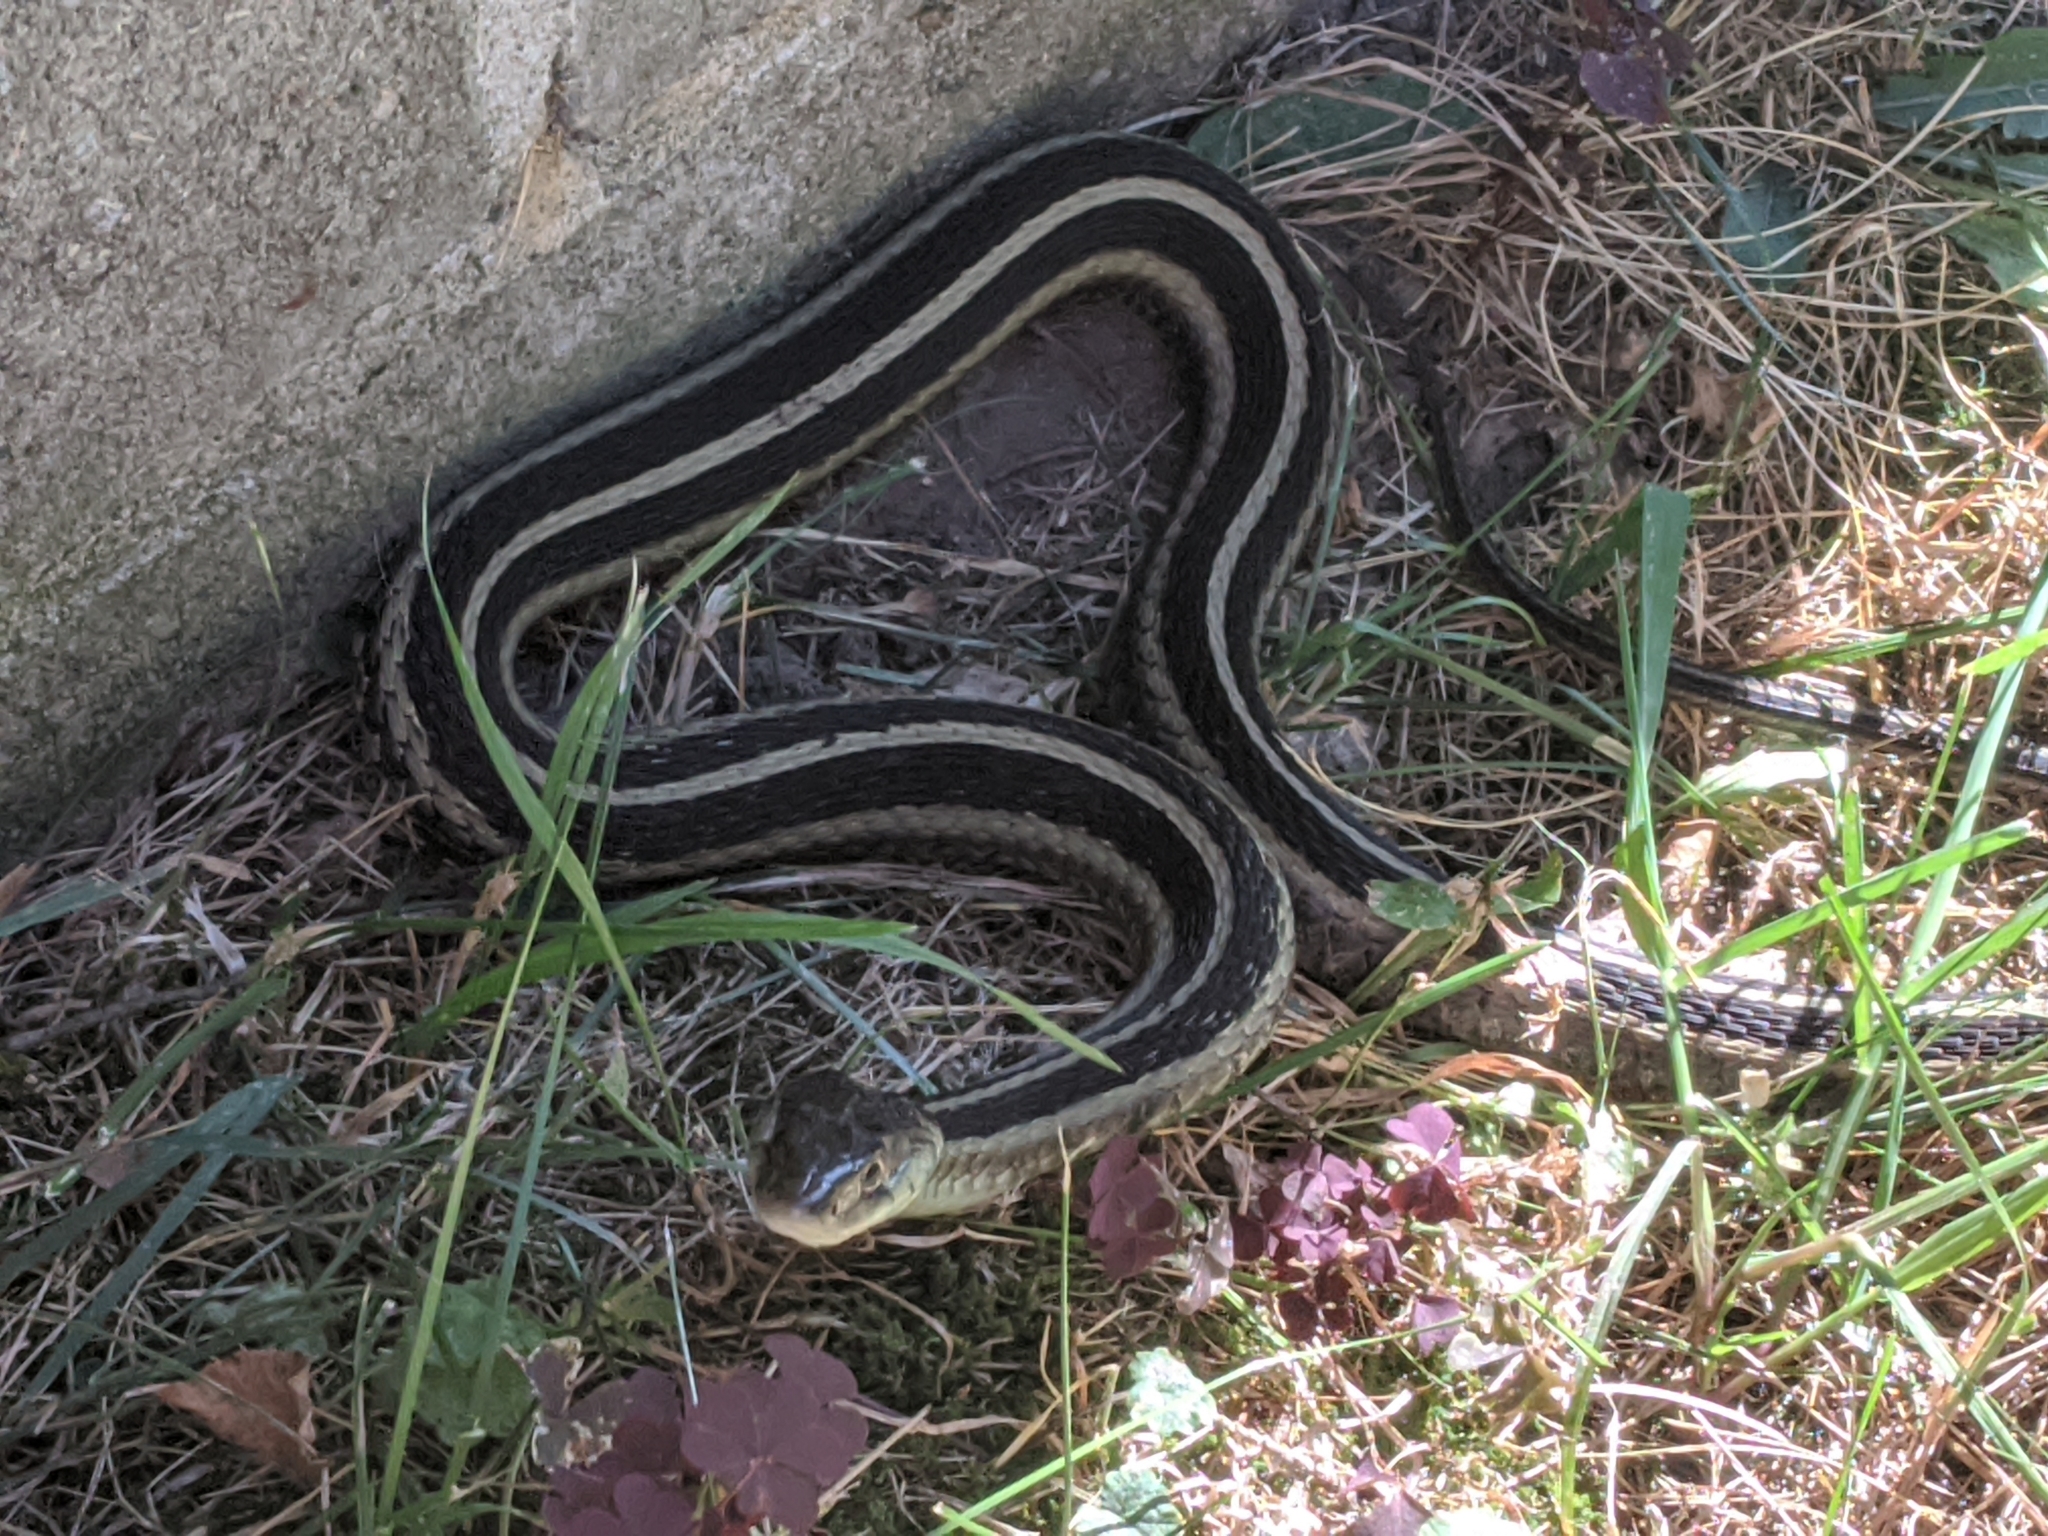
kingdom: Animalia
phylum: Chordata
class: Squamata
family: Colubridae
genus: Thamnophis
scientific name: Thamnophis sirtalis
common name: Common garter snake
